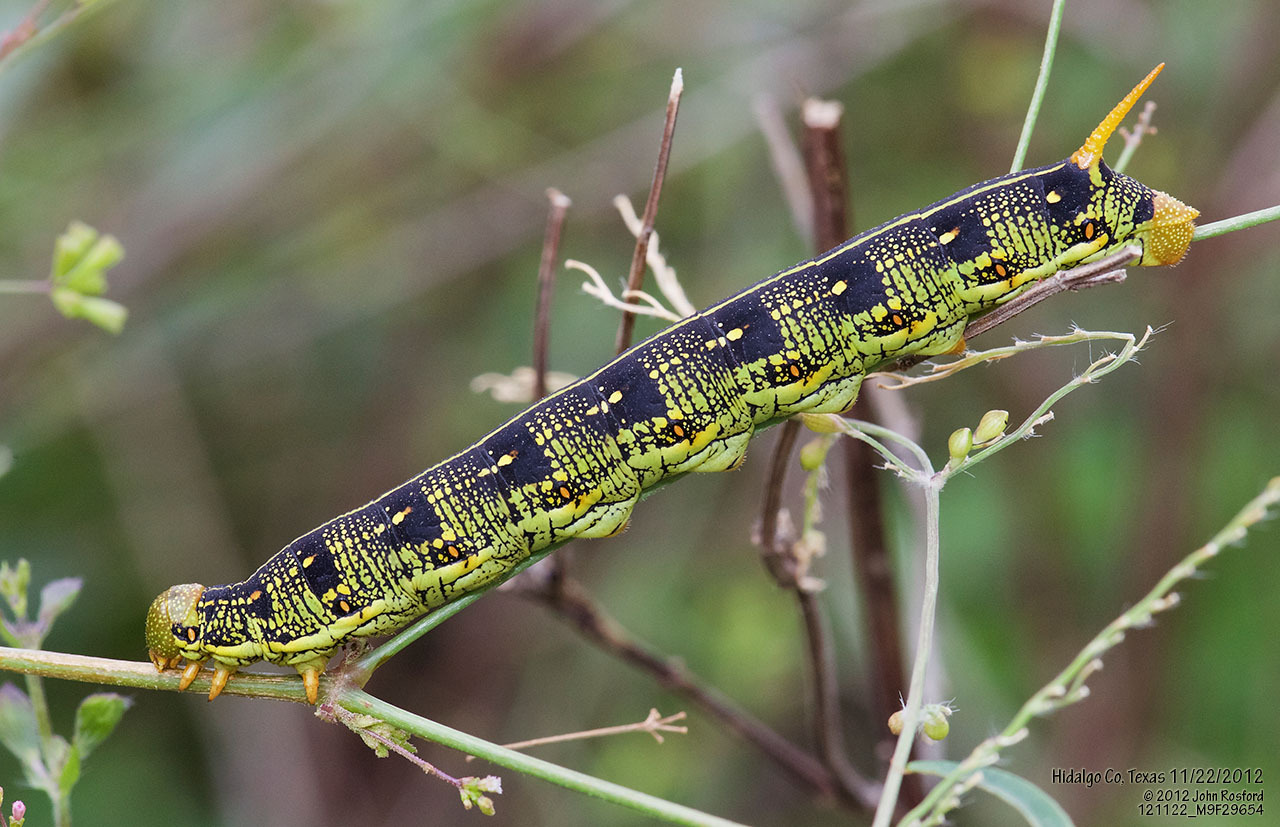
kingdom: Animalia
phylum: Arthropoda
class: Insecta
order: Lepidoptera
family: Sphingidae
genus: Hyles
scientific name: Hyles lineata
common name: White-lined sphinx
